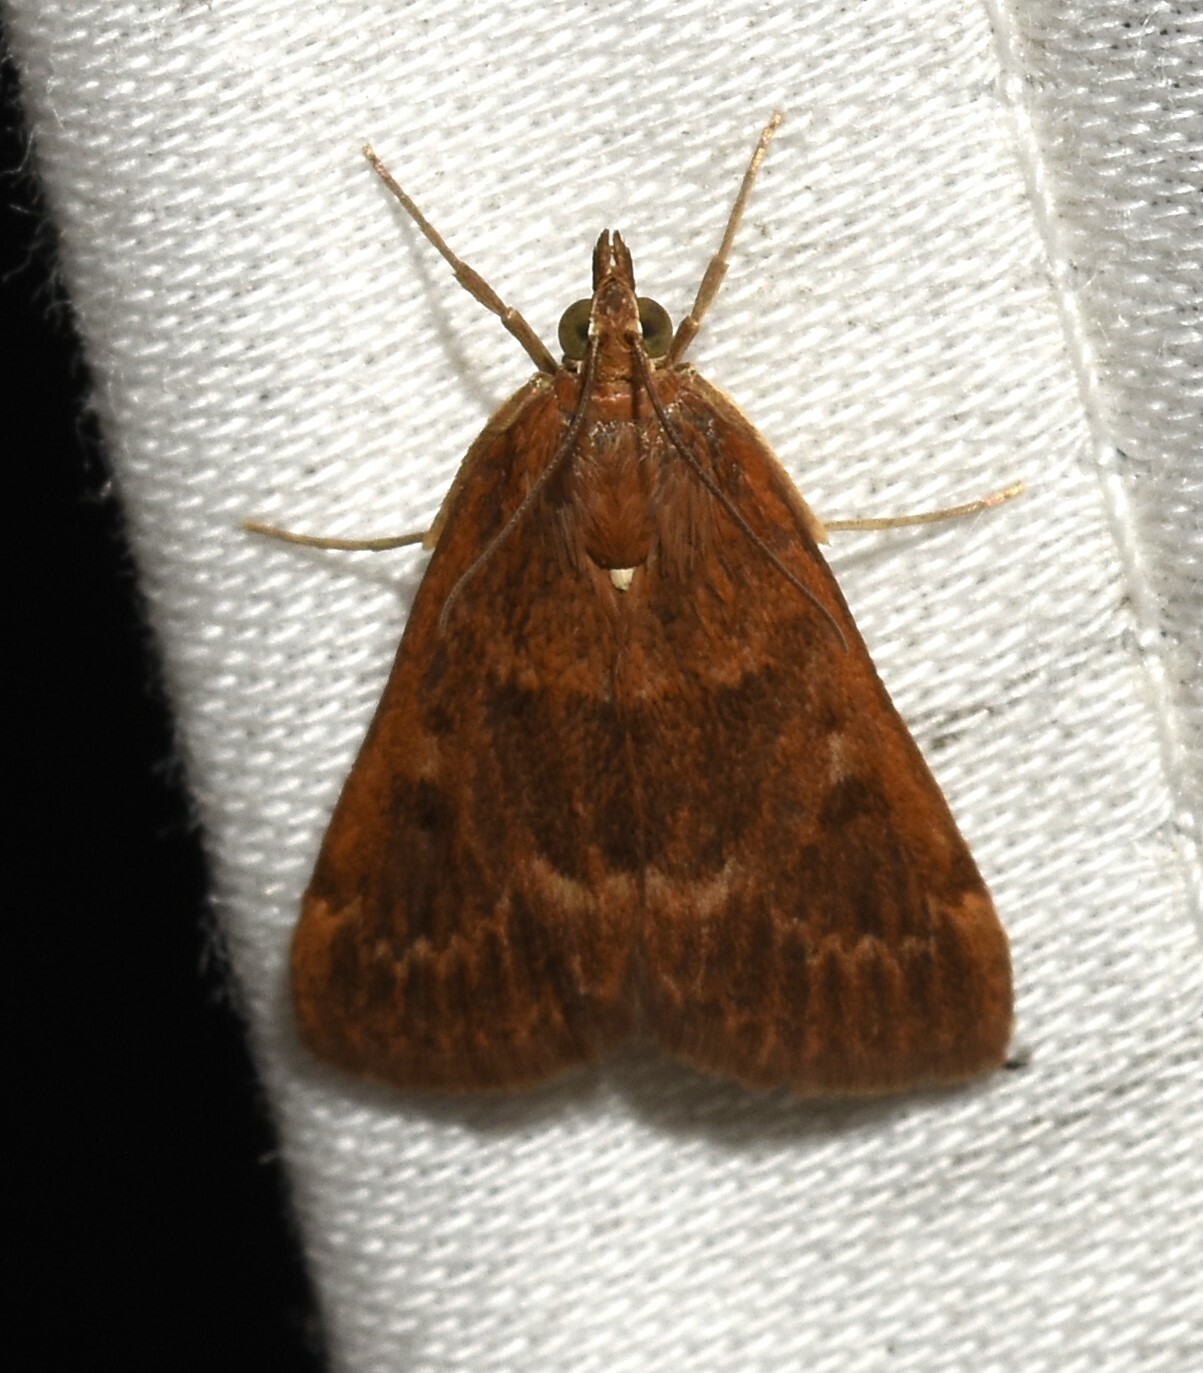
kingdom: Animalia
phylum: Arthropoda
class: Insecta
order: Lepidoptera
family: Crambidae
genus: Achyra
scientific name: Achyra rantalis
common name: Garden webworm
